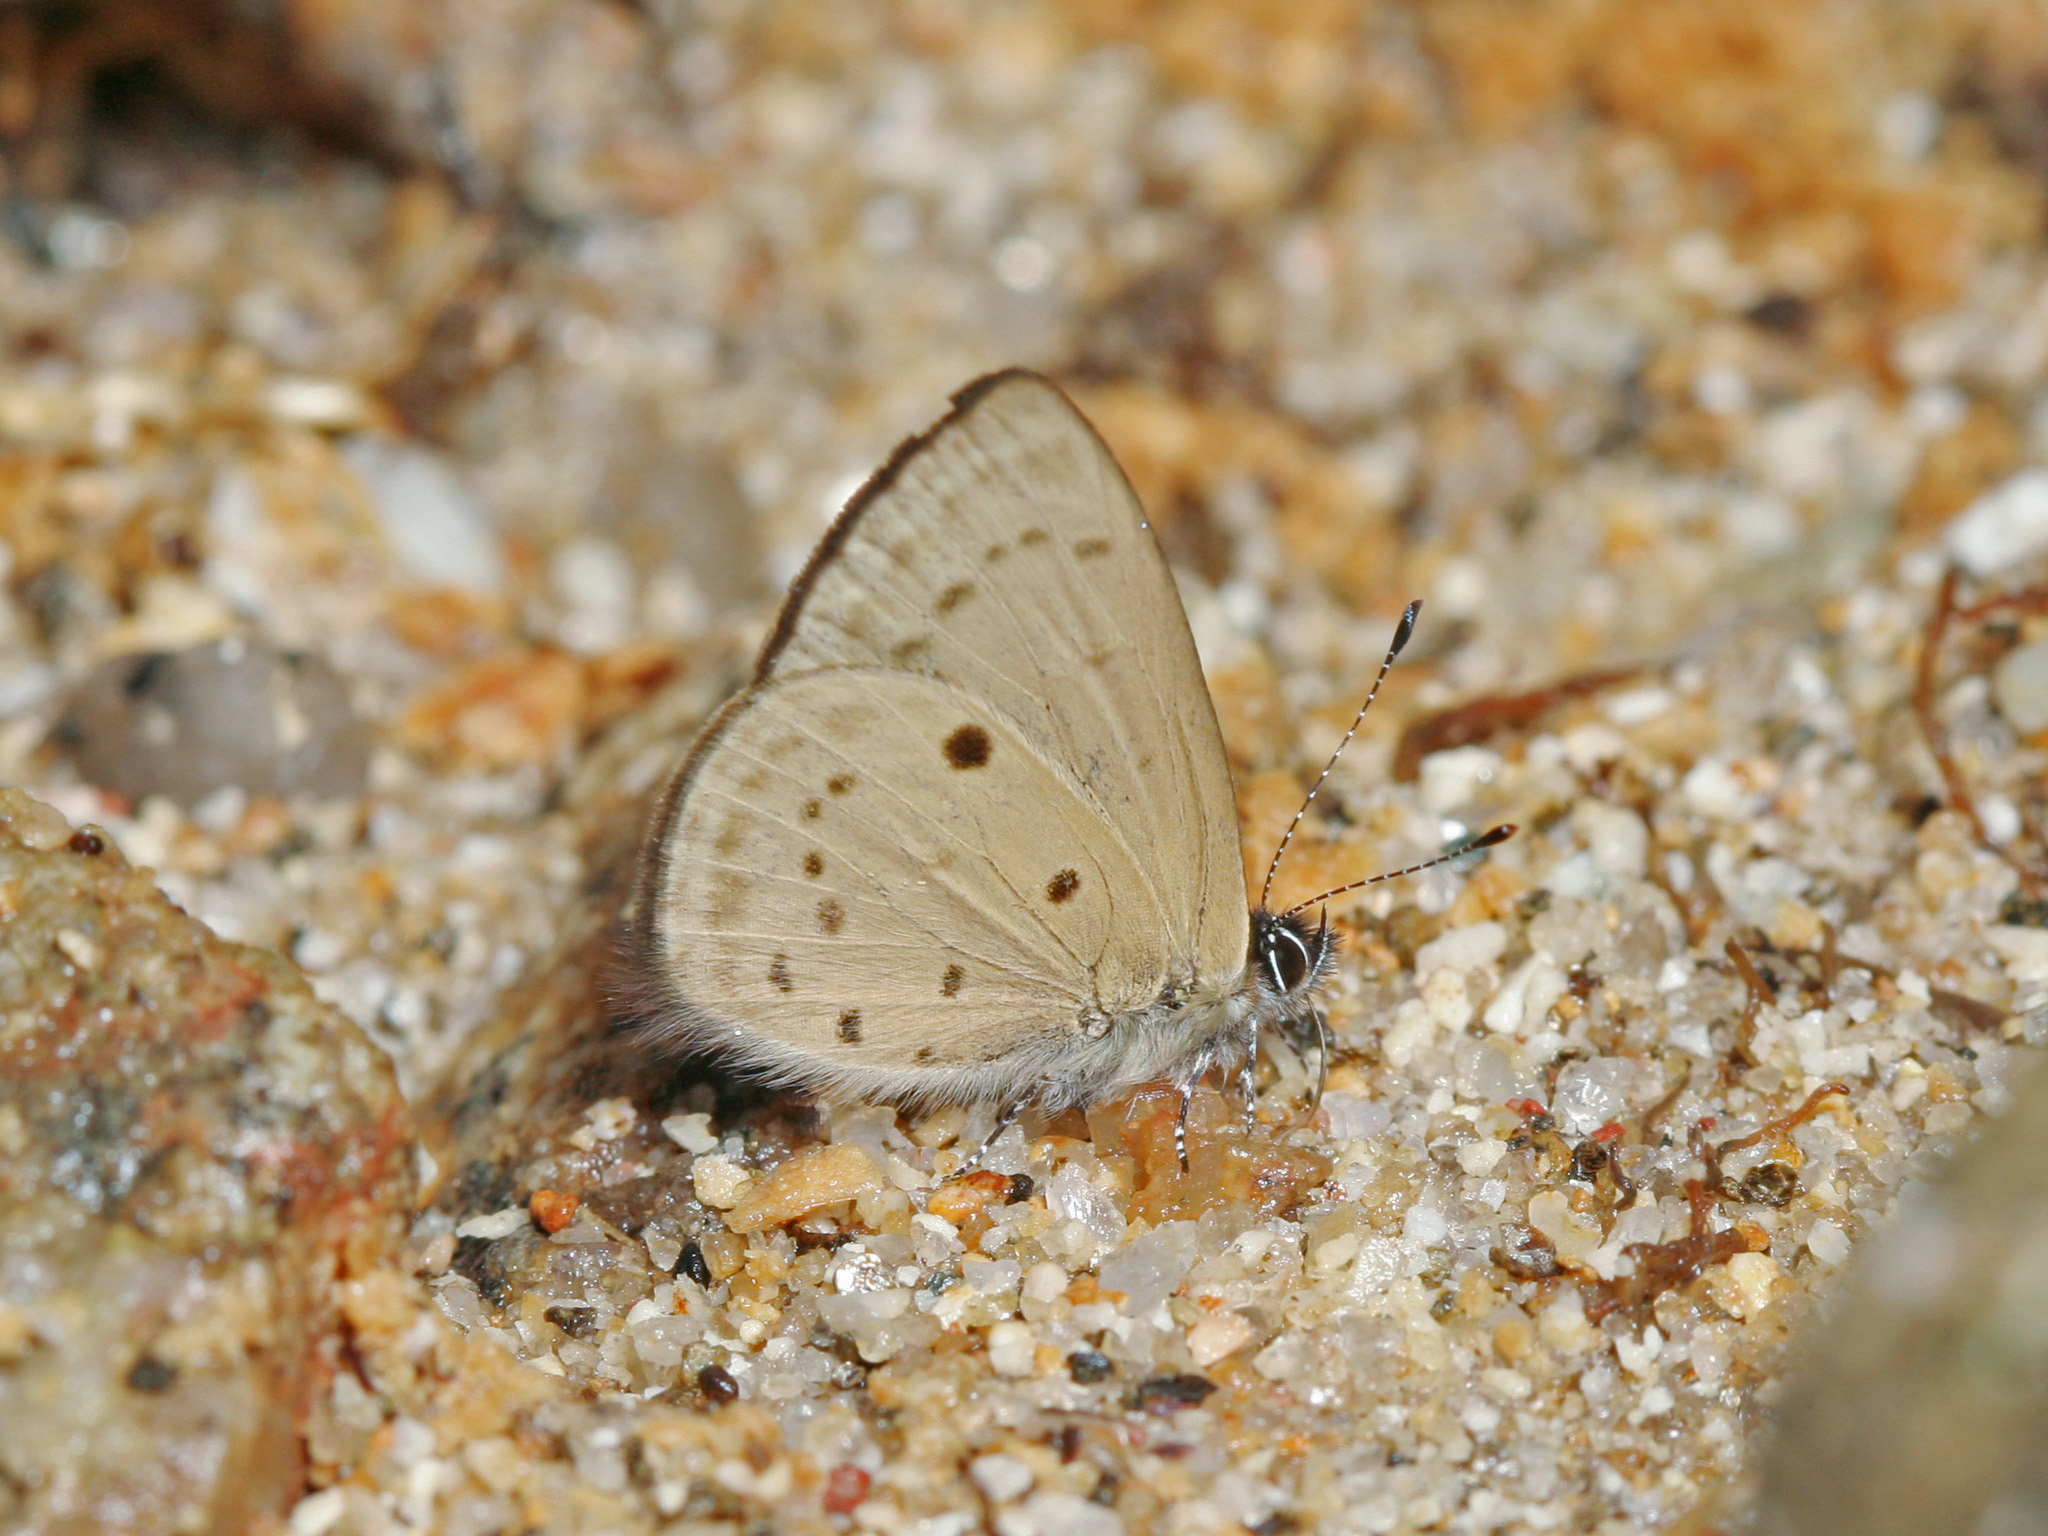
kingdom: Animalia
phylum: Arthropoda
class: Insecta
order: Lepidoptera
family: Lycaenidae
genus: Una
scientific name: Una usta
